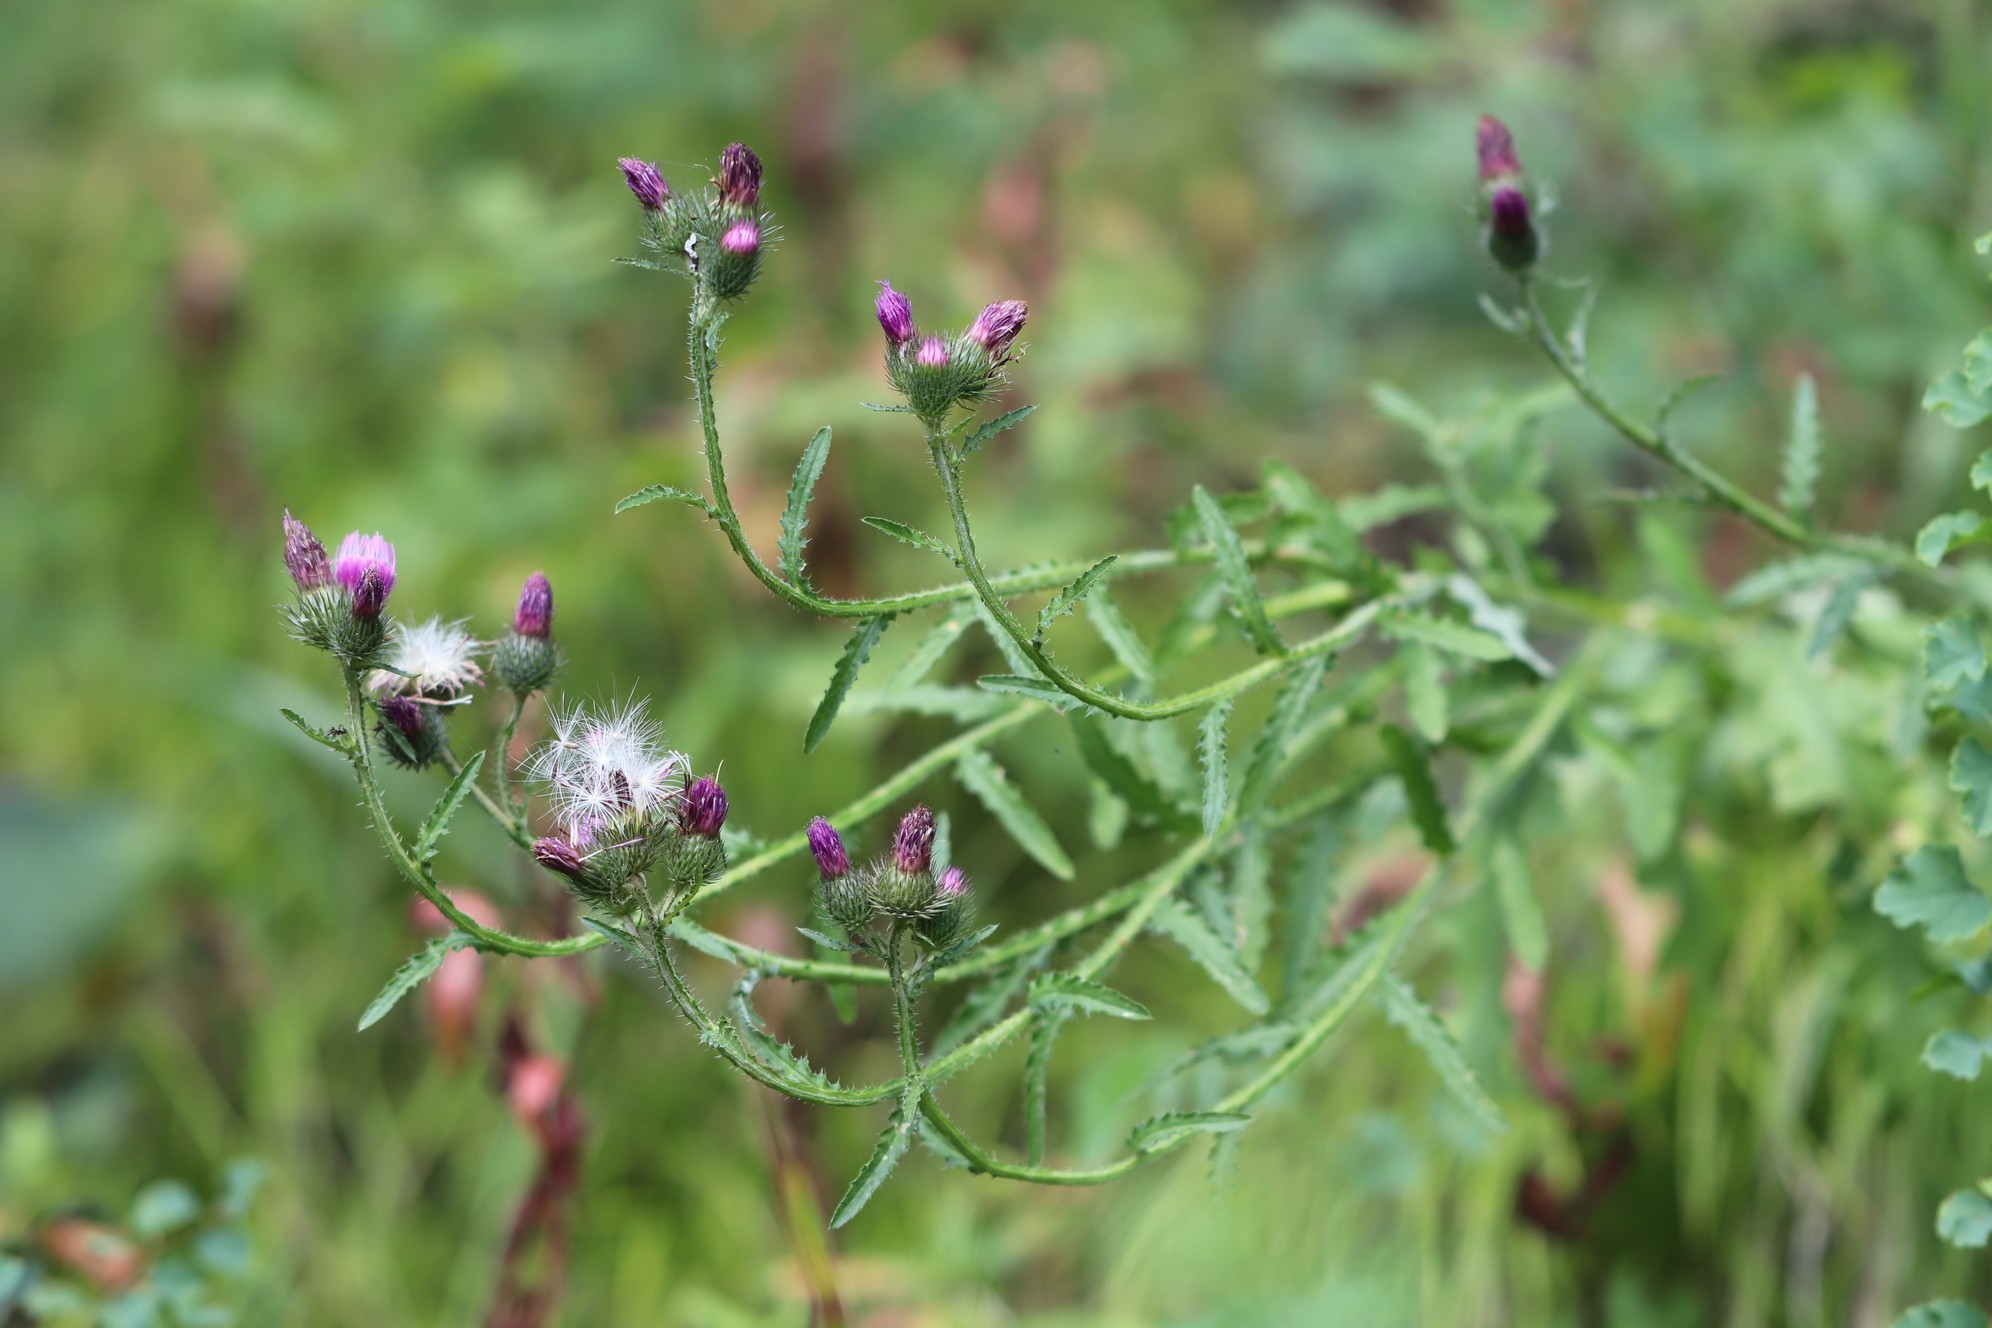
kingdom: Plantae
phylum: Tracheophyta
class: Magnoliopsida
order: Asterales
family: Asteraceae
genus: Carduus
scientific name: Carduus crispus
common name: Welted thistle
